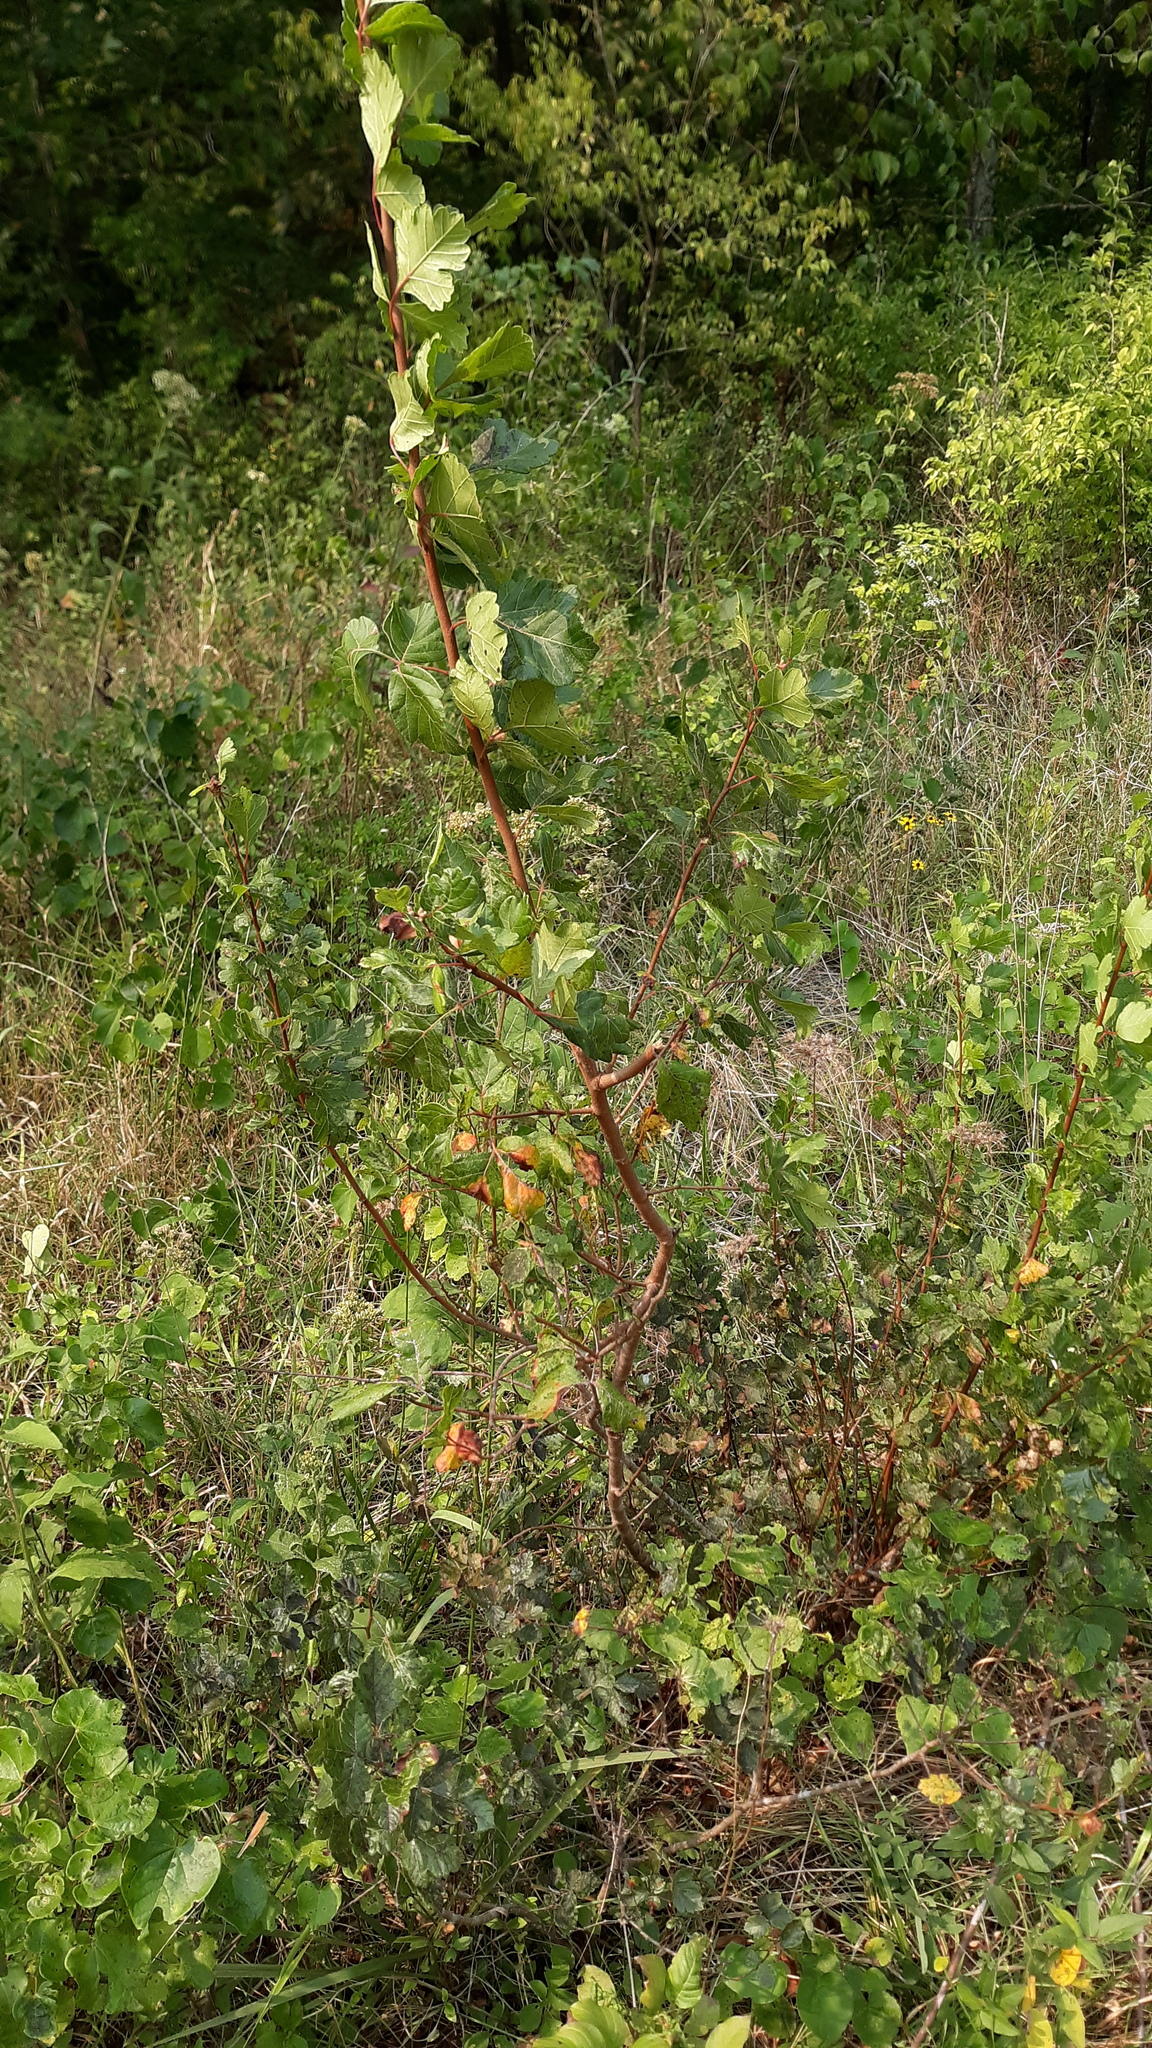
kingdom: Plantae
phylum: Tracheophyta
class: Magnoliopsida
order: Sapindales
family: Anacardiaceae
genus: Rhus
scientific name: Rhus aromatica
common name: Aromatic sumac
